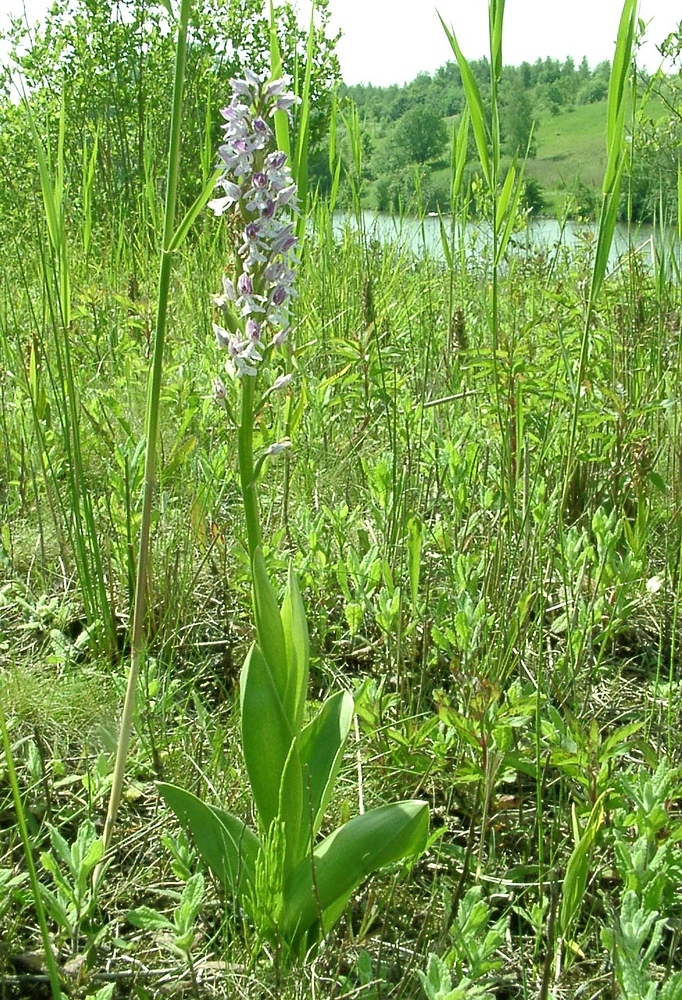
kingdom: Plantae
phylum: Tracheophyta
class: Liliopsida
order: Asparagales
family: Orchidaceae
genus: Orchis
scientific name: Orchis militaris
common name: Military orchid
